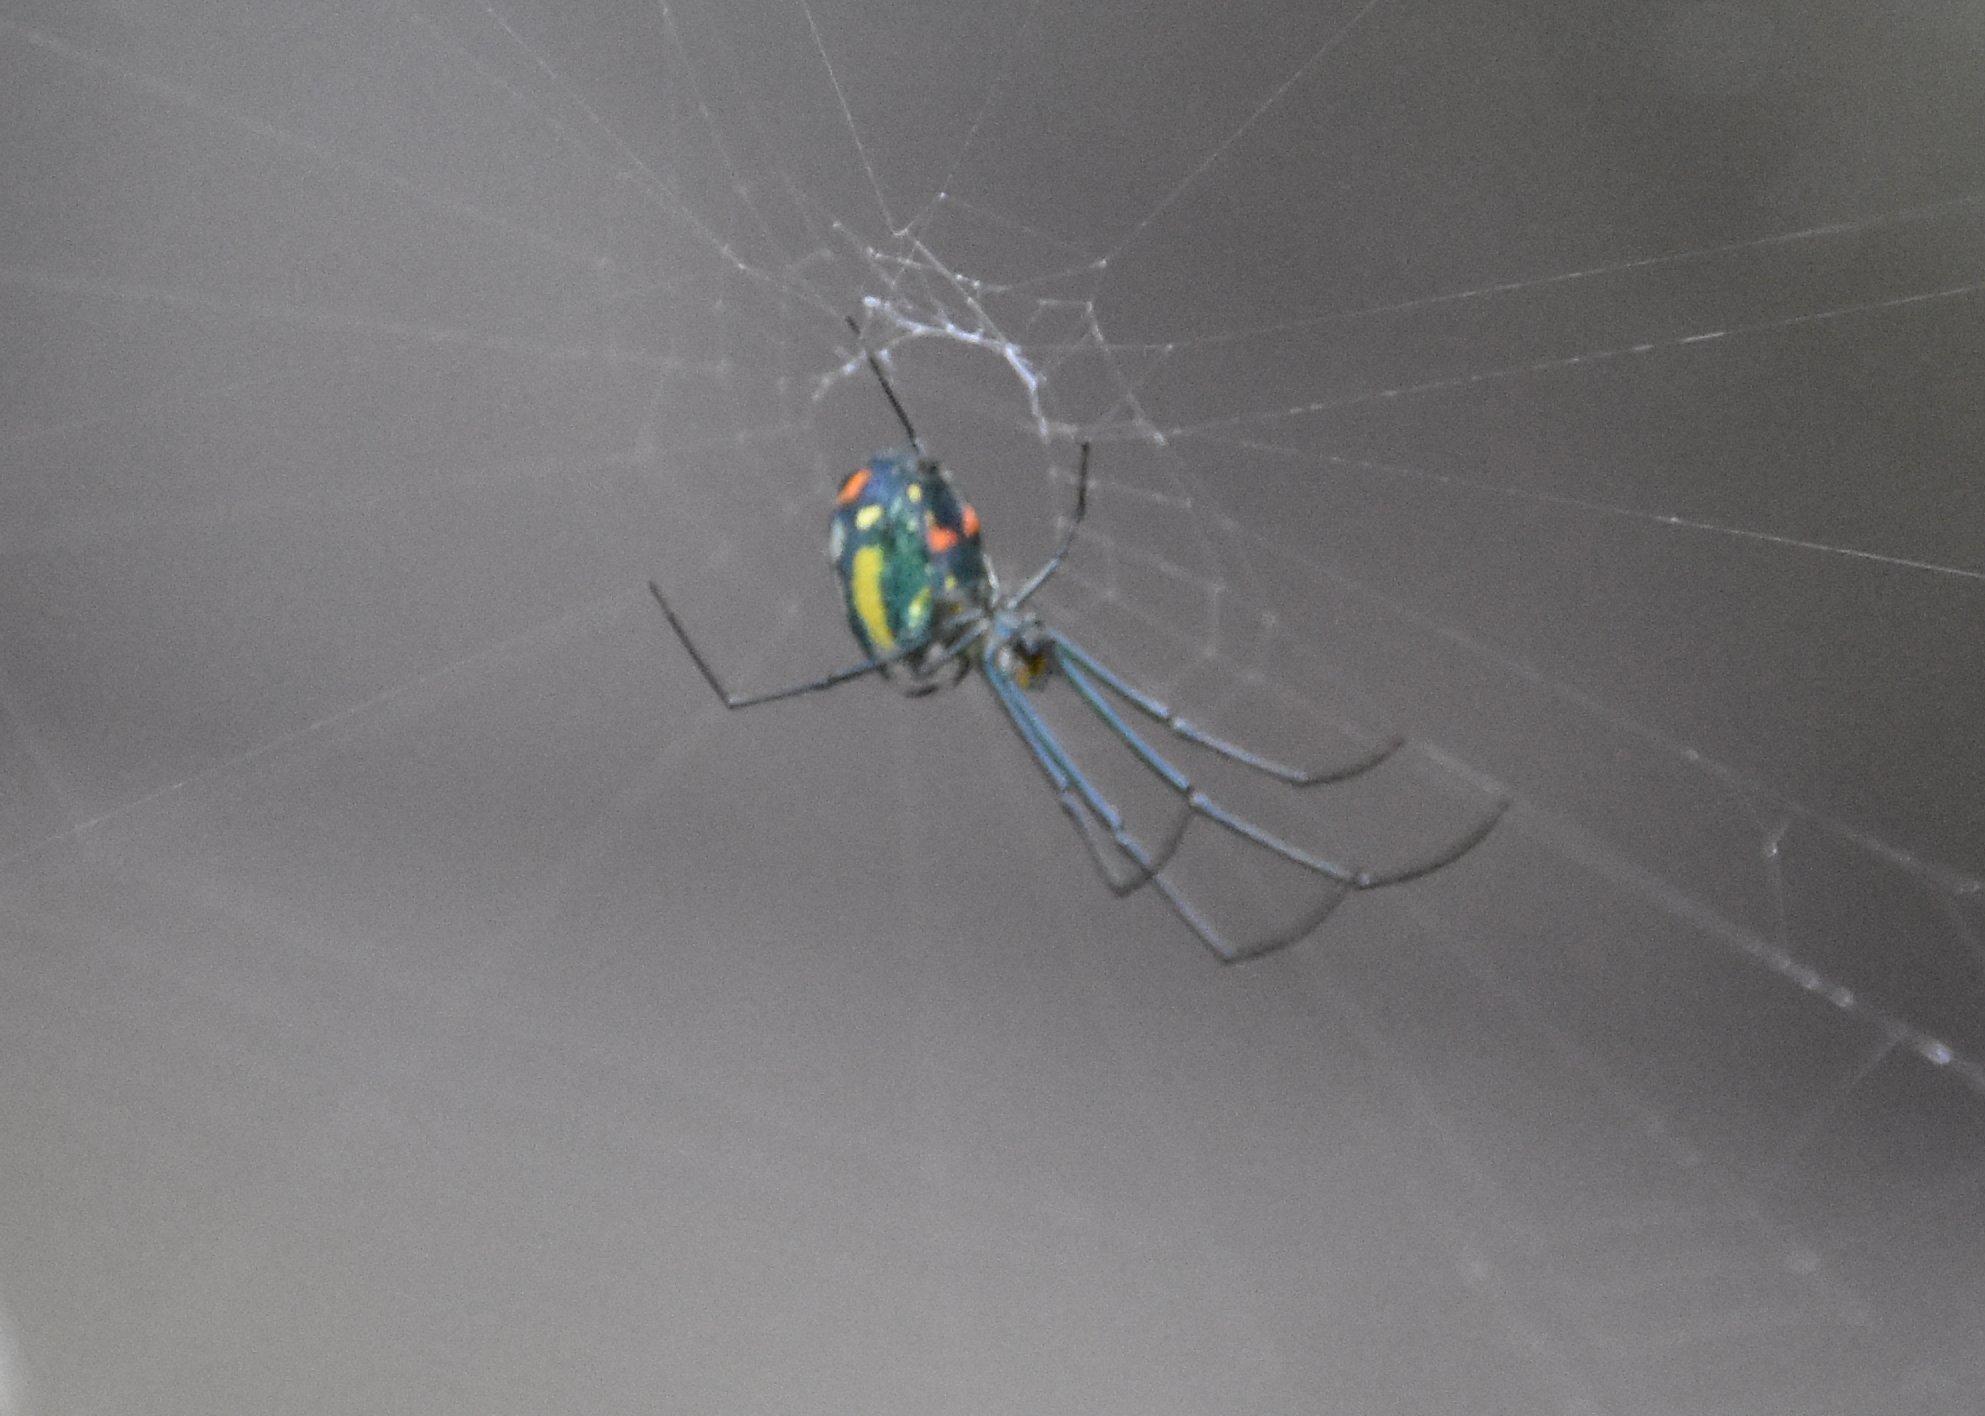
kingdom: Animalia
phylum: Arthropoda
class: Arachnida
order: Araneae
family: Tetragnathidae
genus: Leucauge
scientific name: Leucauge argyrobapta
